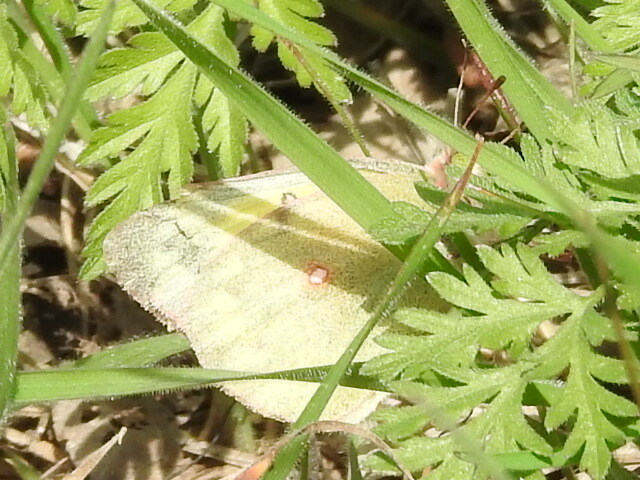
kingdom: Animalia
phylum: Arthropoda
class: Insecta
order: Lepidoptera
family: Pieridae
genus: Colias
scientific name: Colias eurytheme
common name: Alfalfa butterfly
